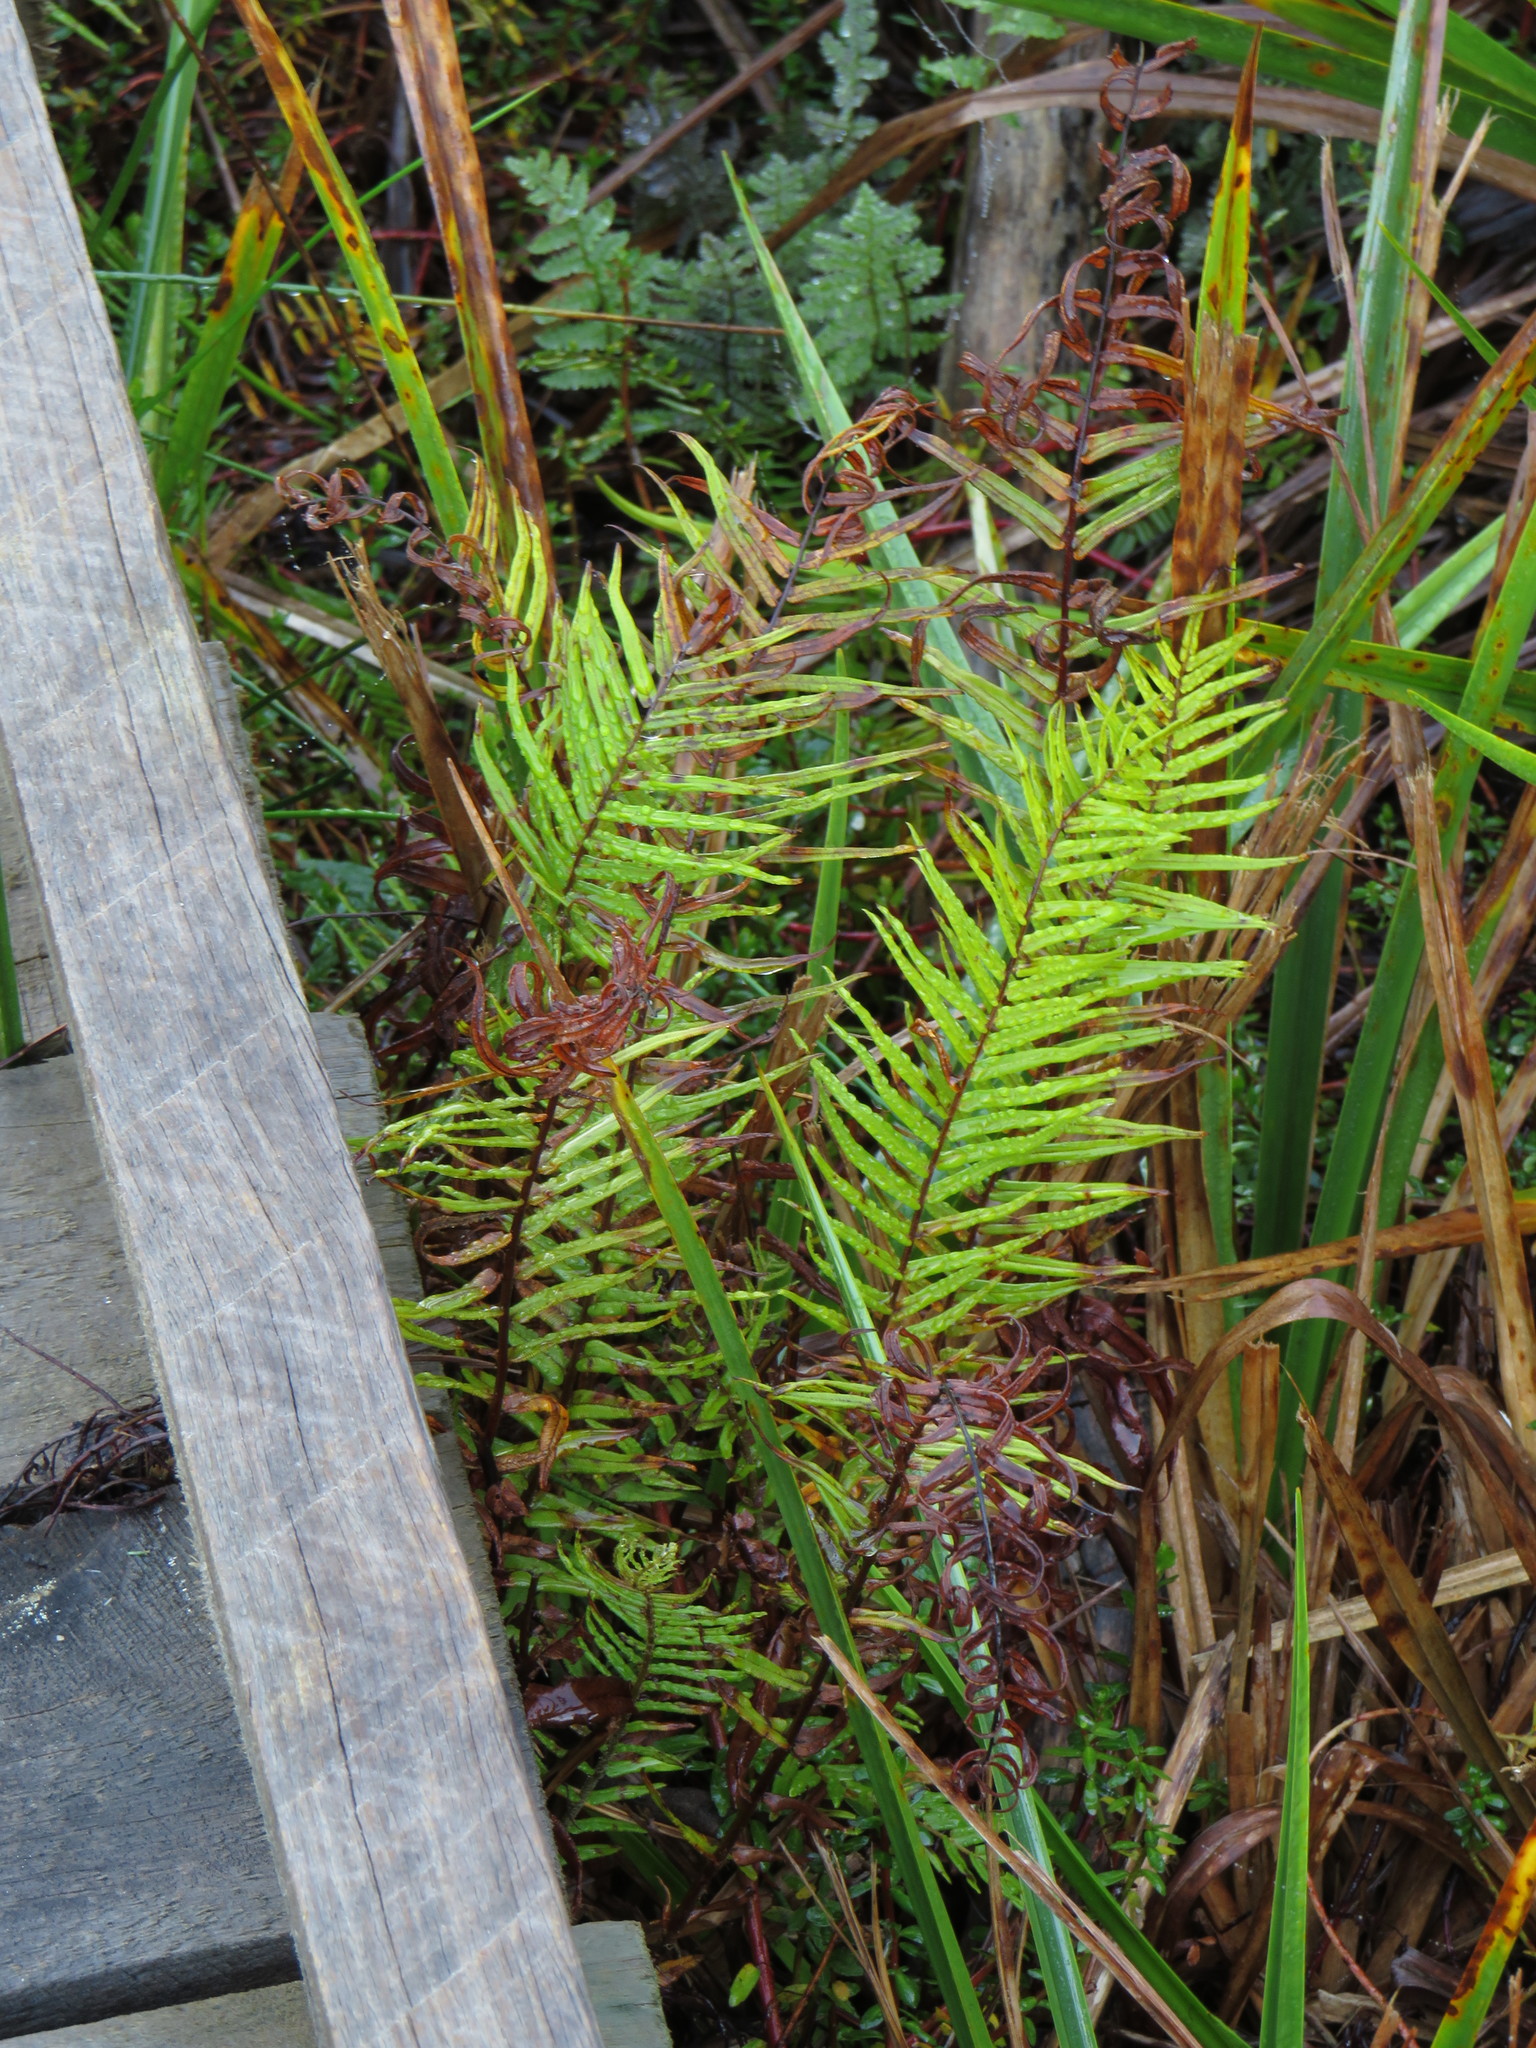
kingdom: Plantae
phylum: Tracheophyta
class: Polypodiopsida
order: Polypodiales
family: Pteridaceae
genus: Pteris
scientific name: Pteris vittata
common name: Ladder brake
